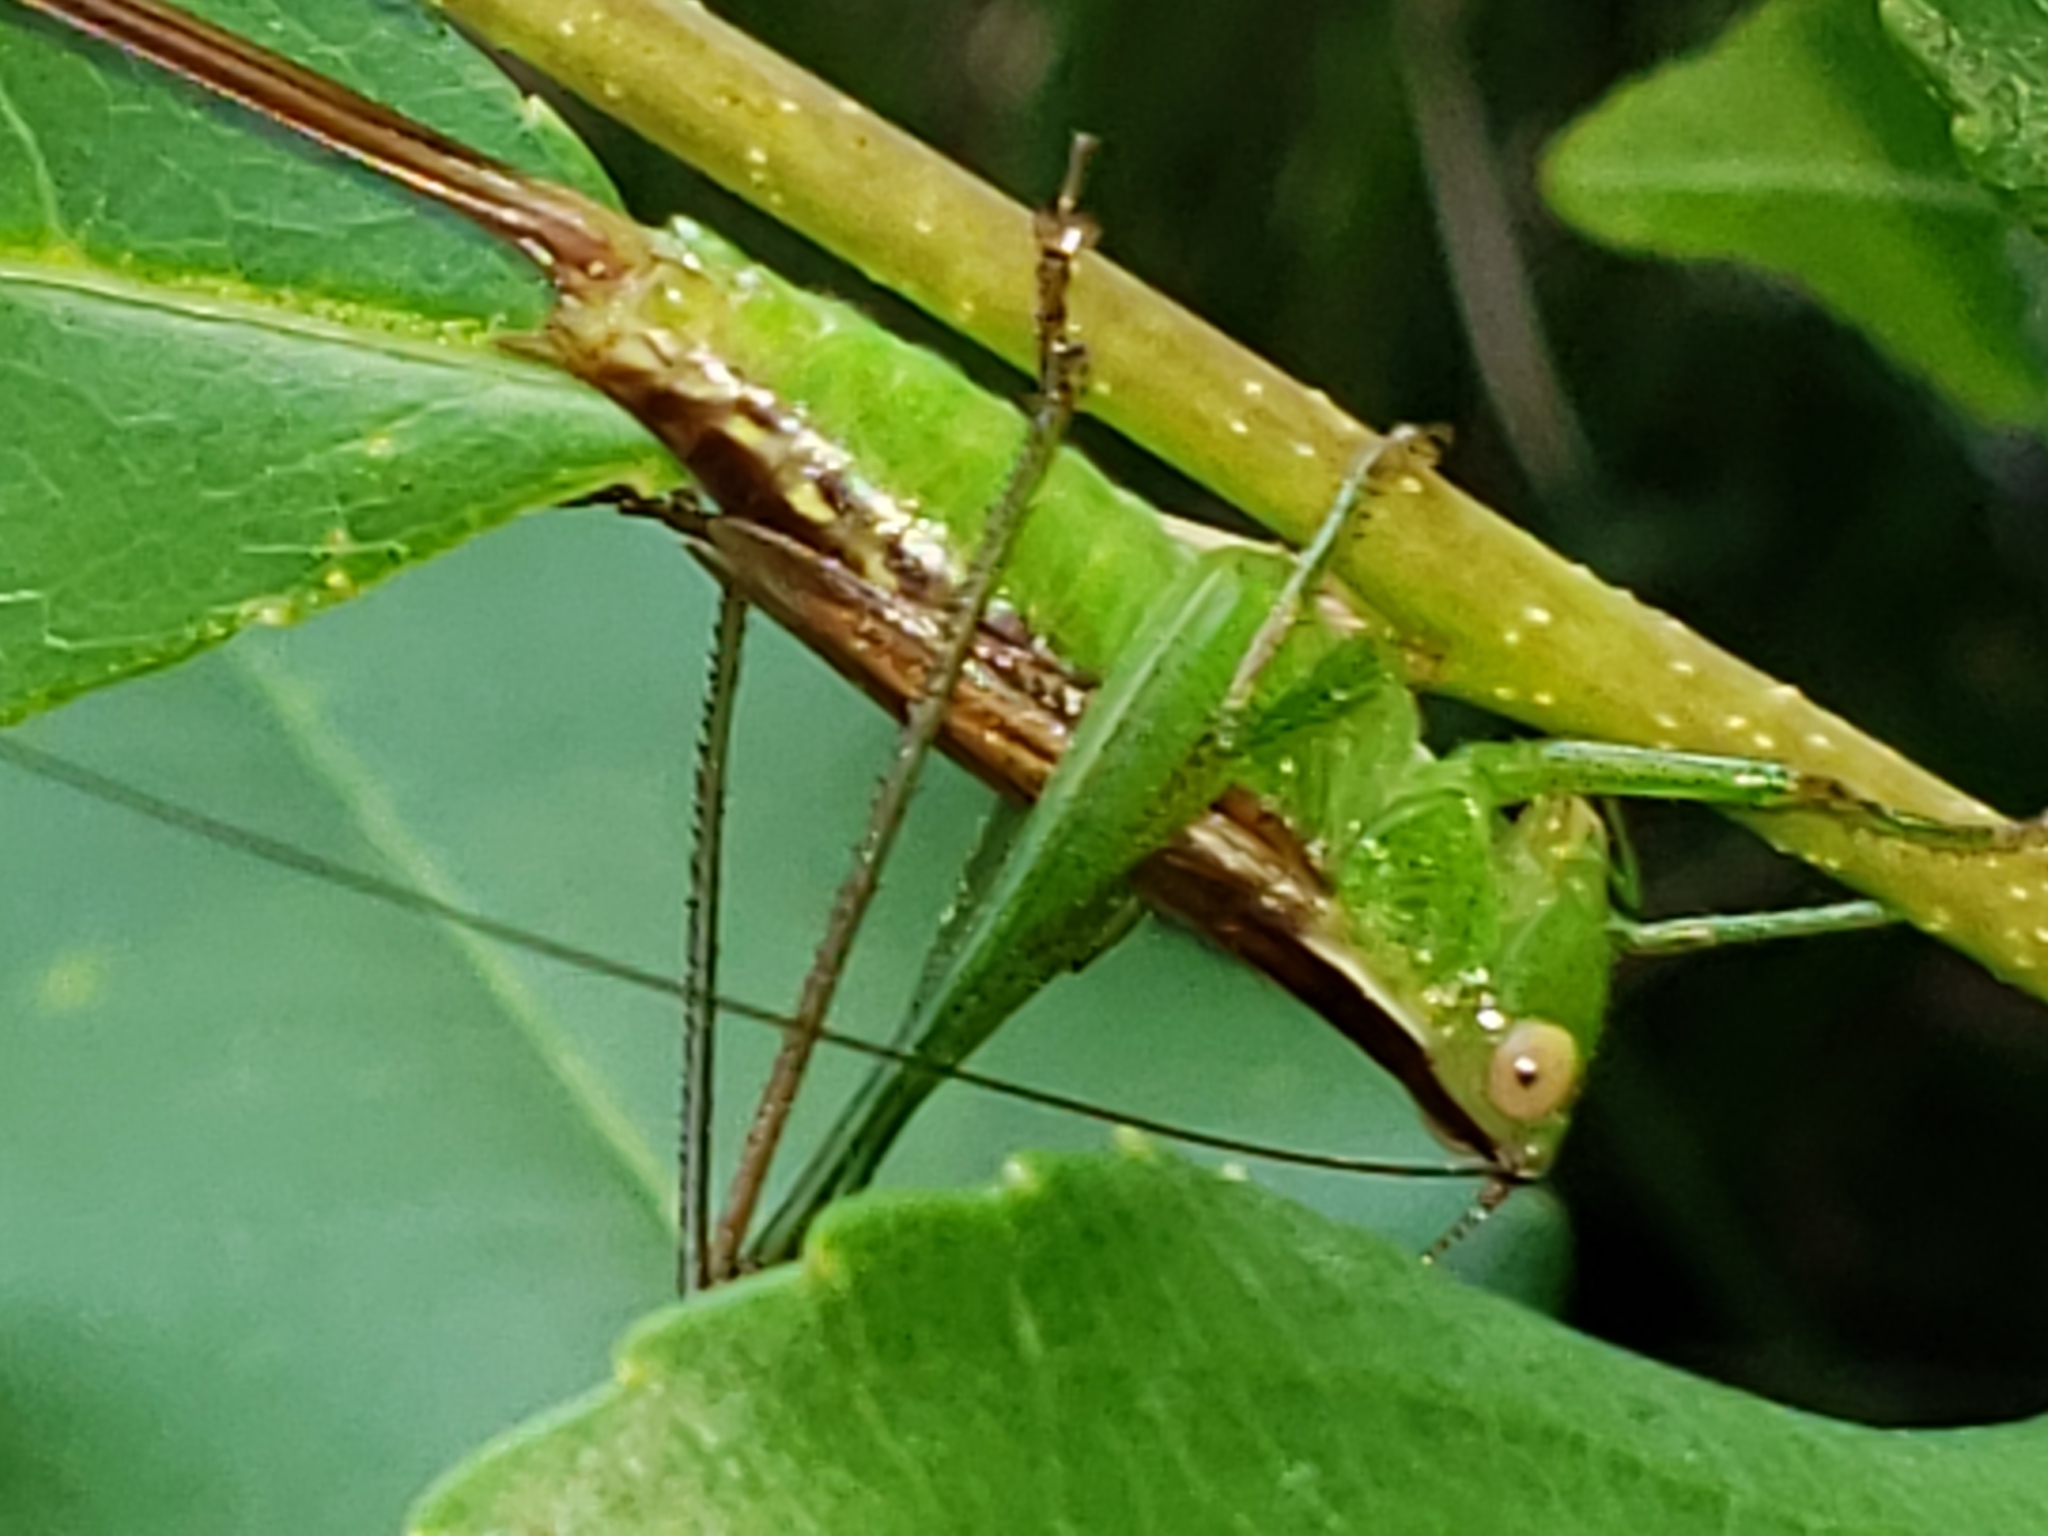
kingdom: Animalia
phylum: Arthropoda
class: Insecta
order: Orthoptera
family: Tettigoniidae
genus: Conocephalus
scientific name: Conocephalus brevipennis
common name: Short-winged meadow katydid
